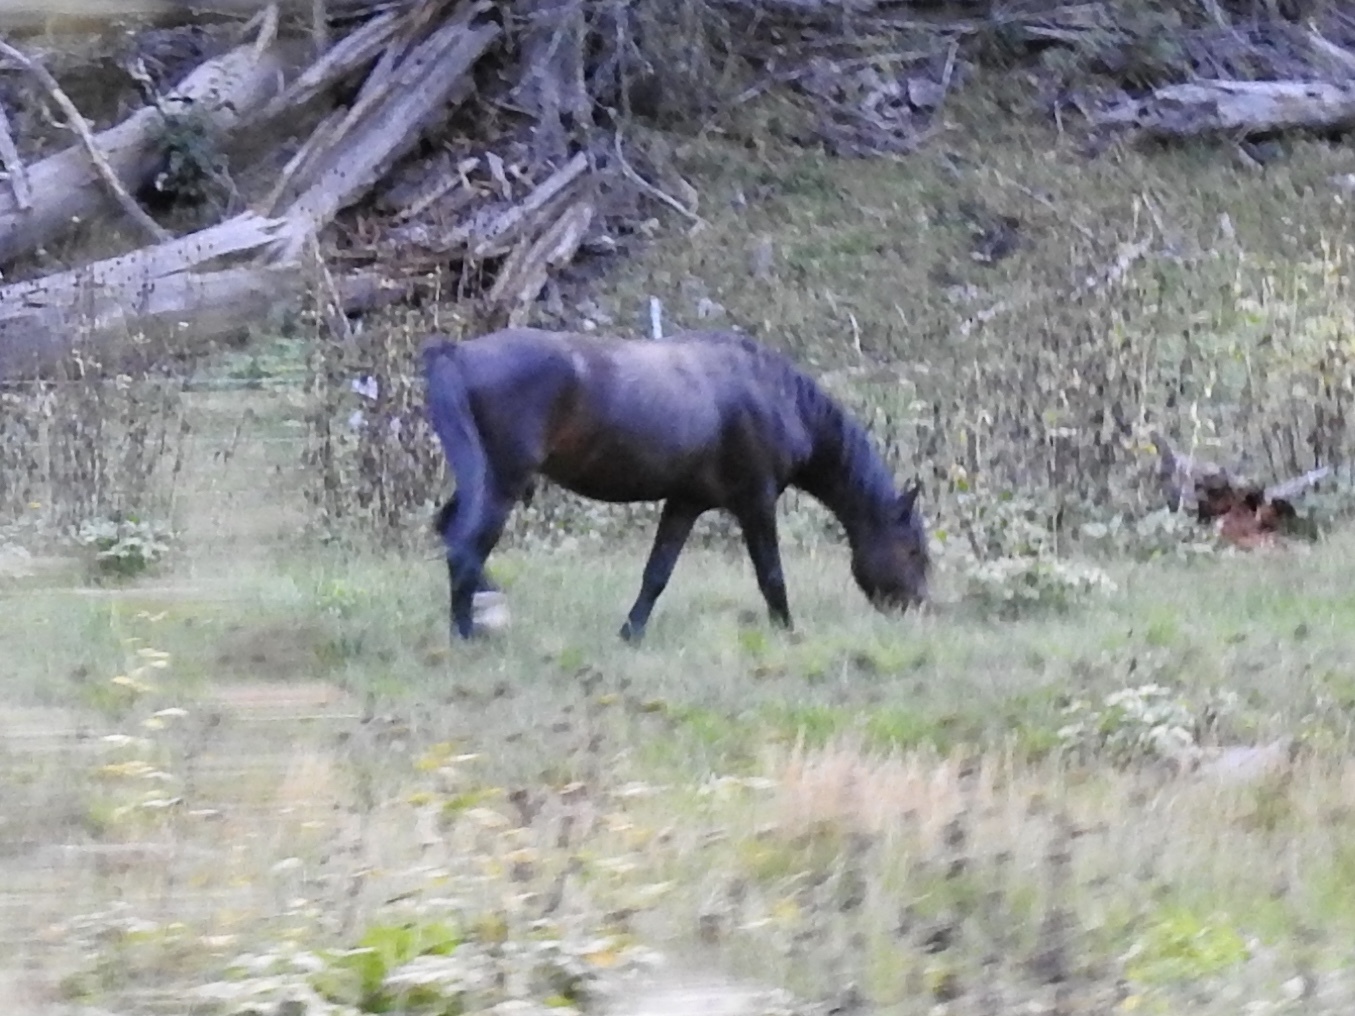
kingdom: Animalia
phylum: Chordata
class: Mammalia
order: Perissodactyla
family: Equidae
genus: Equus
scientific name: Equus caballus
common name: Horse
